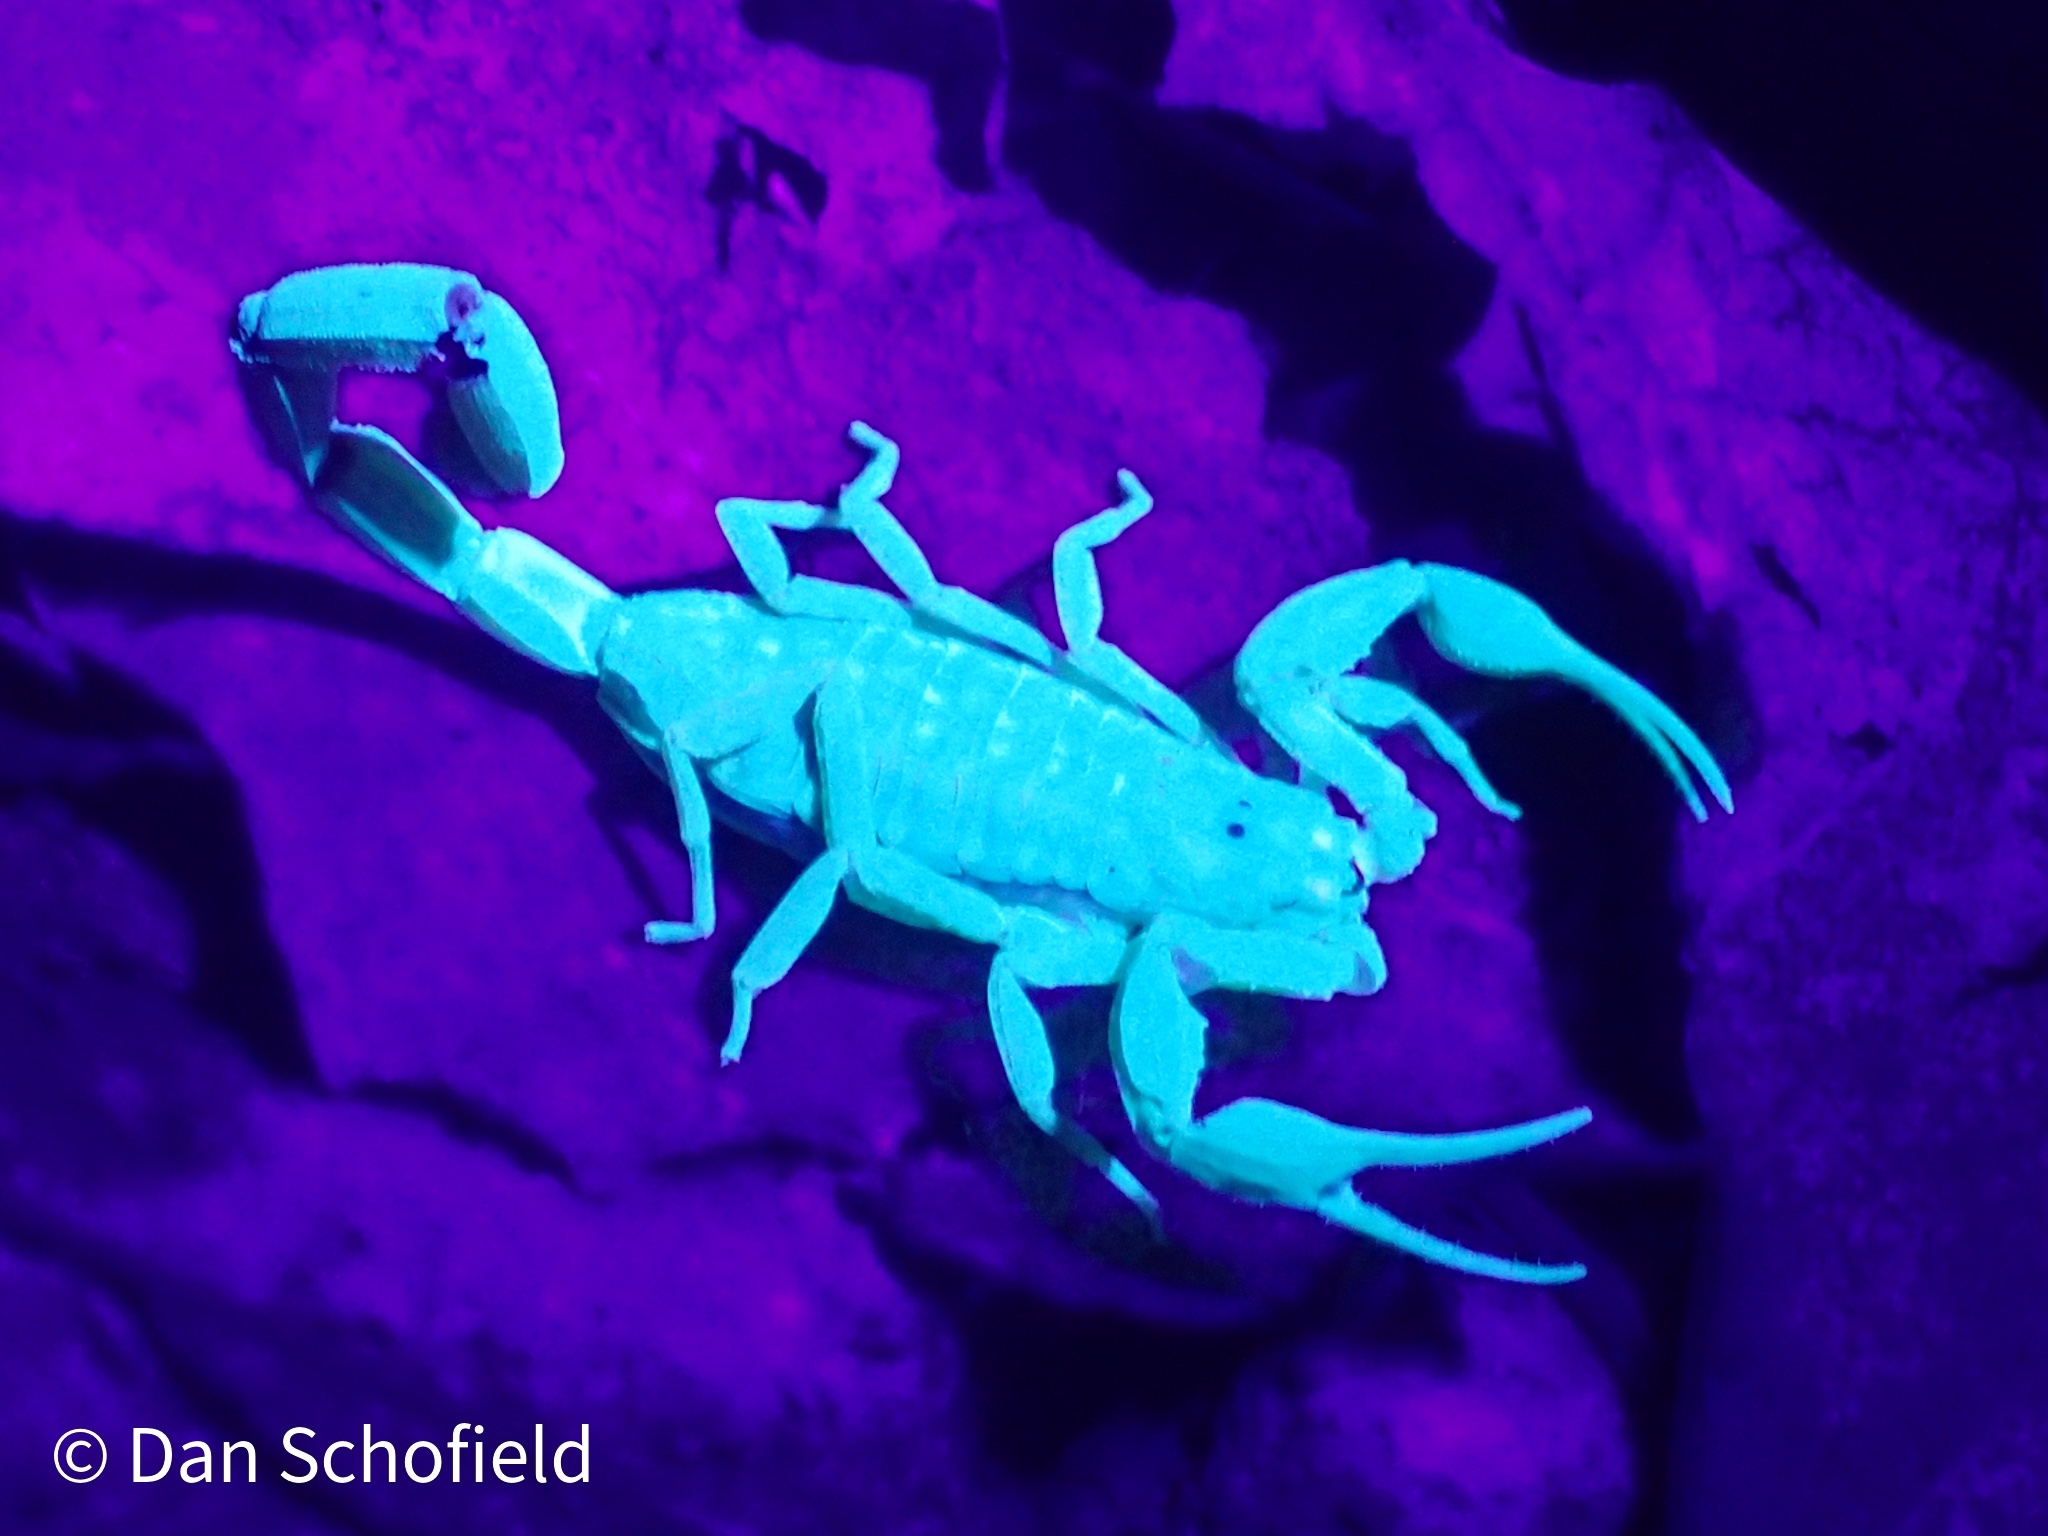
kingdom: Animalia
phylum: Arthropoda
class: Arachnida
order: Scorpiones
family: Buthidae
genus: Centruroides
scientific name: Centruroides barbudensis
